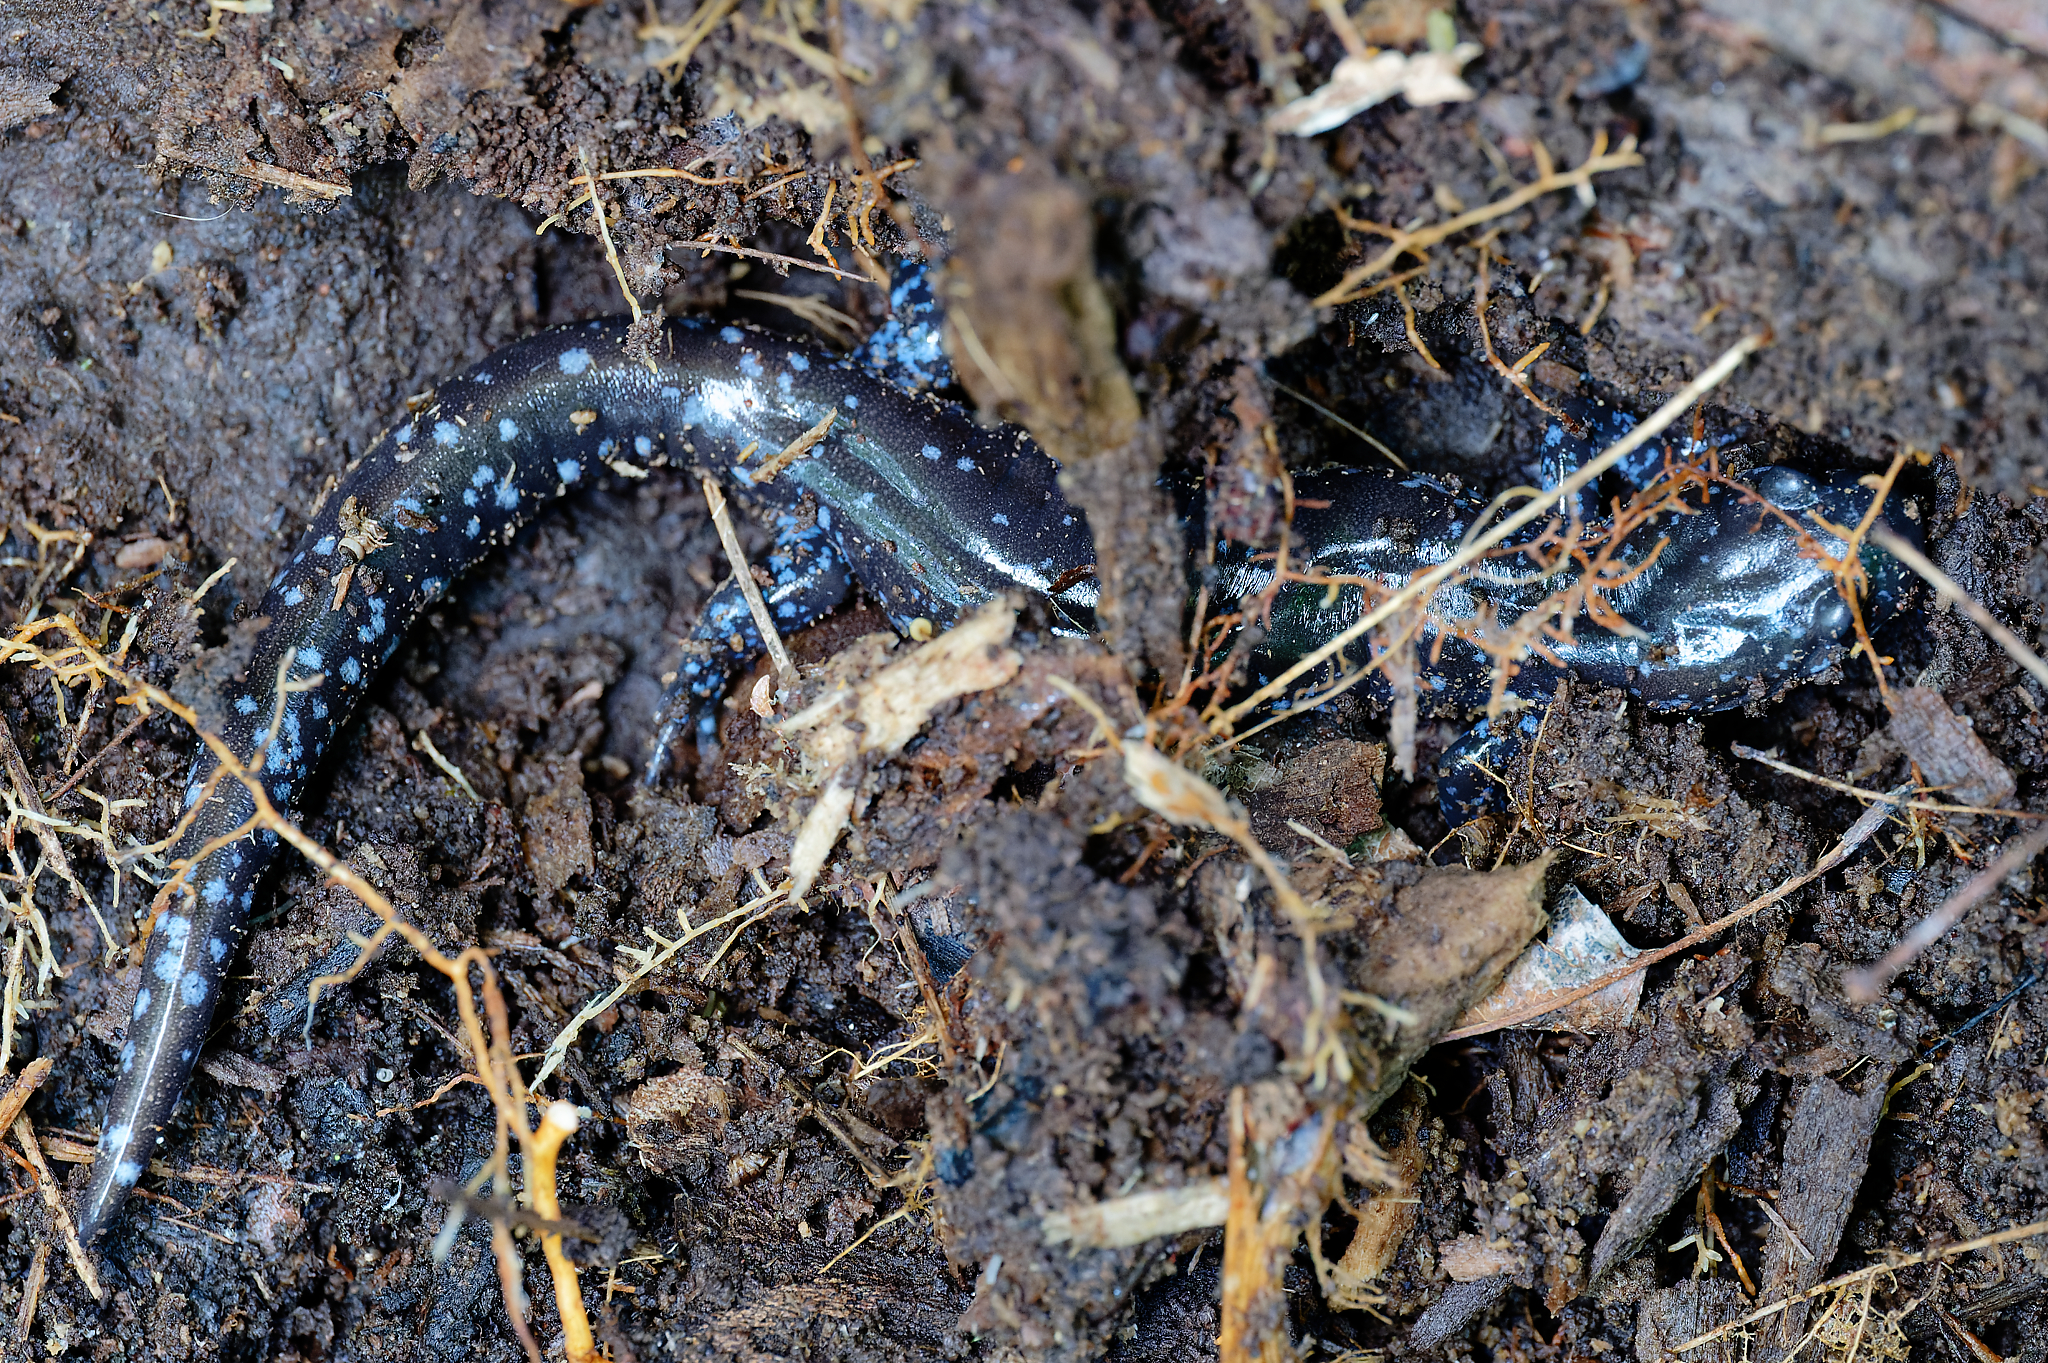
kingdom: Animalia
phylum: Chordata
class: Amphibia
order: Caudata
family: Ambystomatidae
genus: Ambystoma
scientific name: Ambystoma laterale
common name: Blue-spotted salamander
